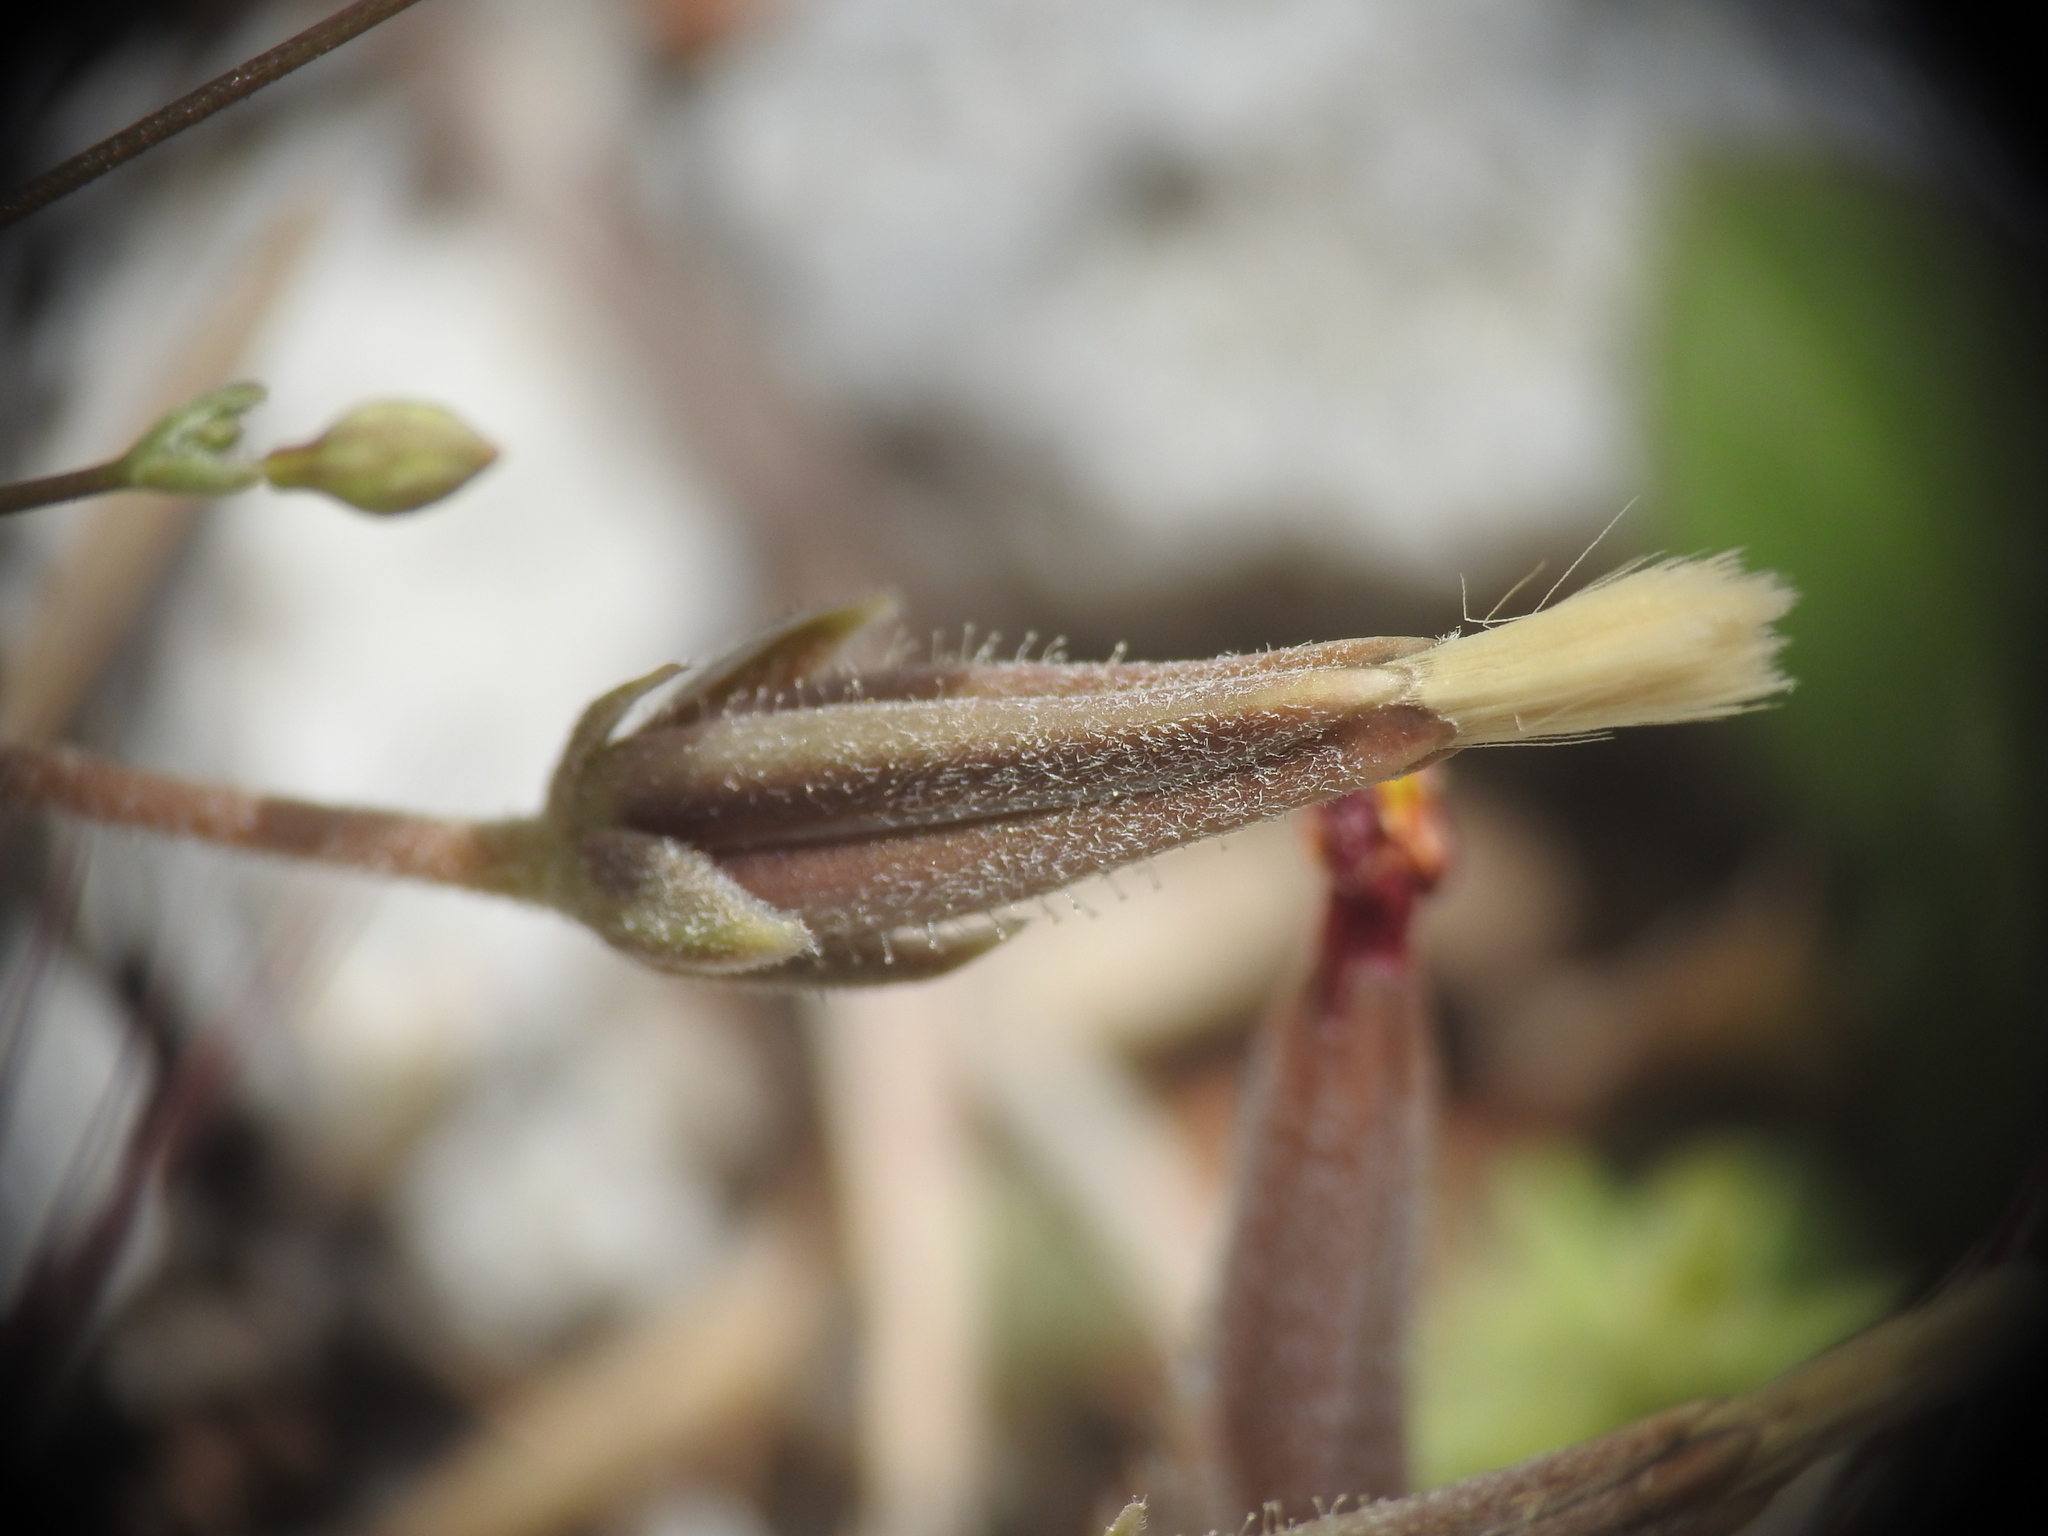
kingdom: Plantae
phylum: Tracheophyta
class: Magnoliopsida
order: Caryophyllales
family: Caryophyllaceae
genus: Silene
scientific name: Silene pinetorum
